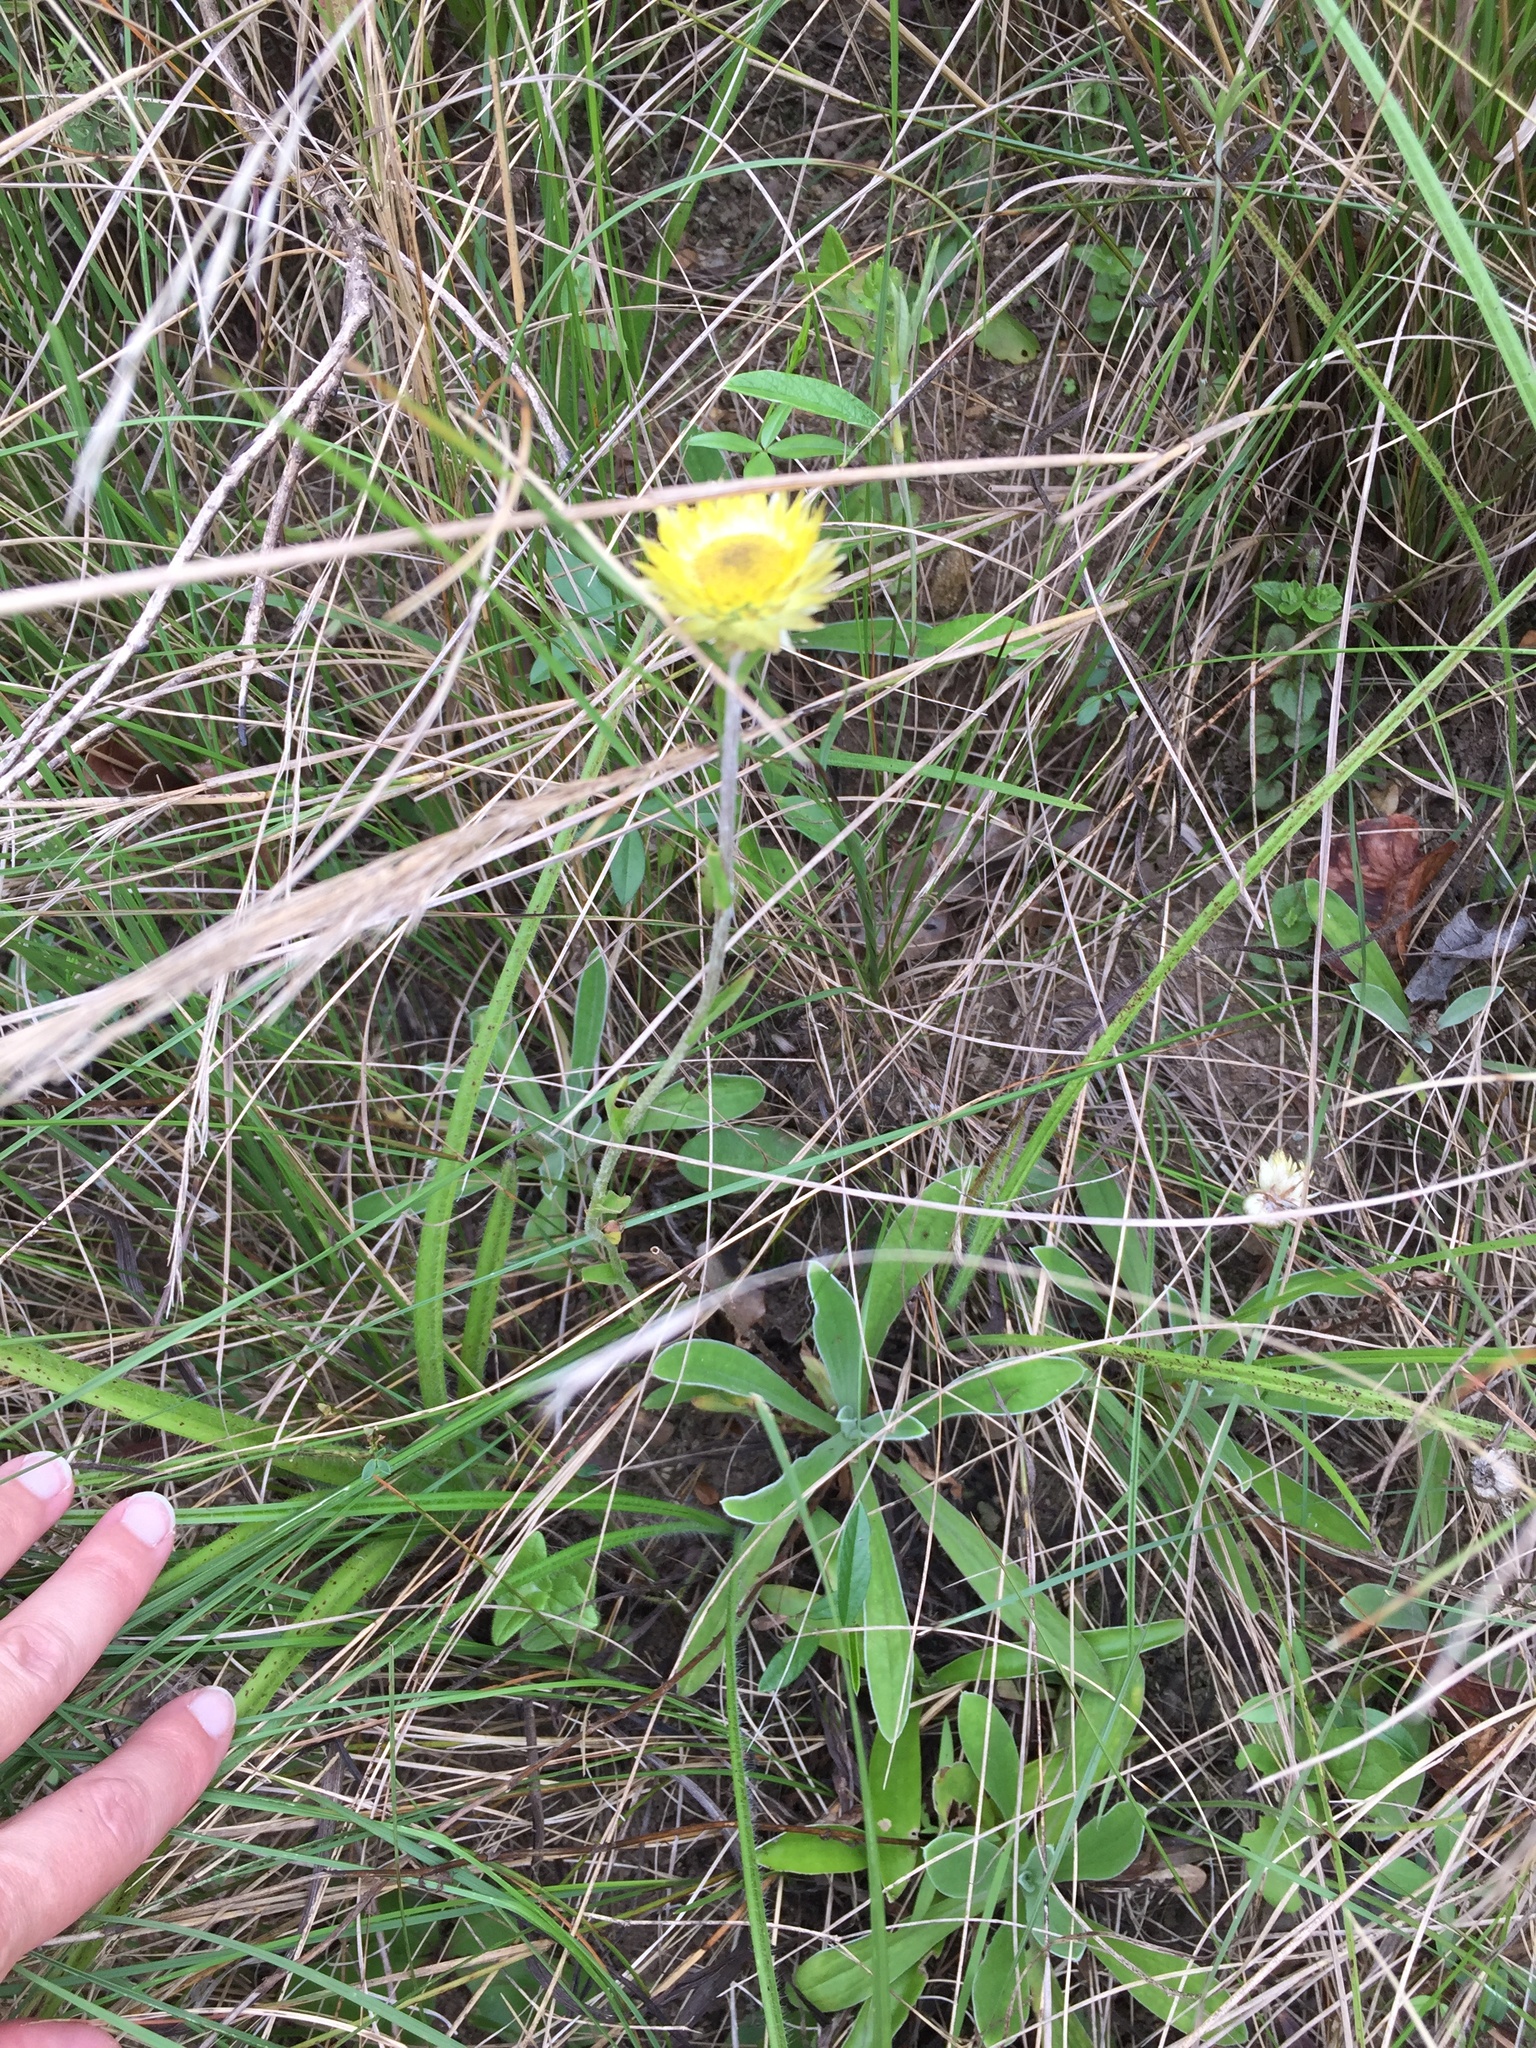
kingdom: Plantae
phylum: Tracheophyta
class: Magnoliopsida
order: Asterales
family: Asteraceae
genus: Helichrysum
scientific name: Helichrysum aureum
